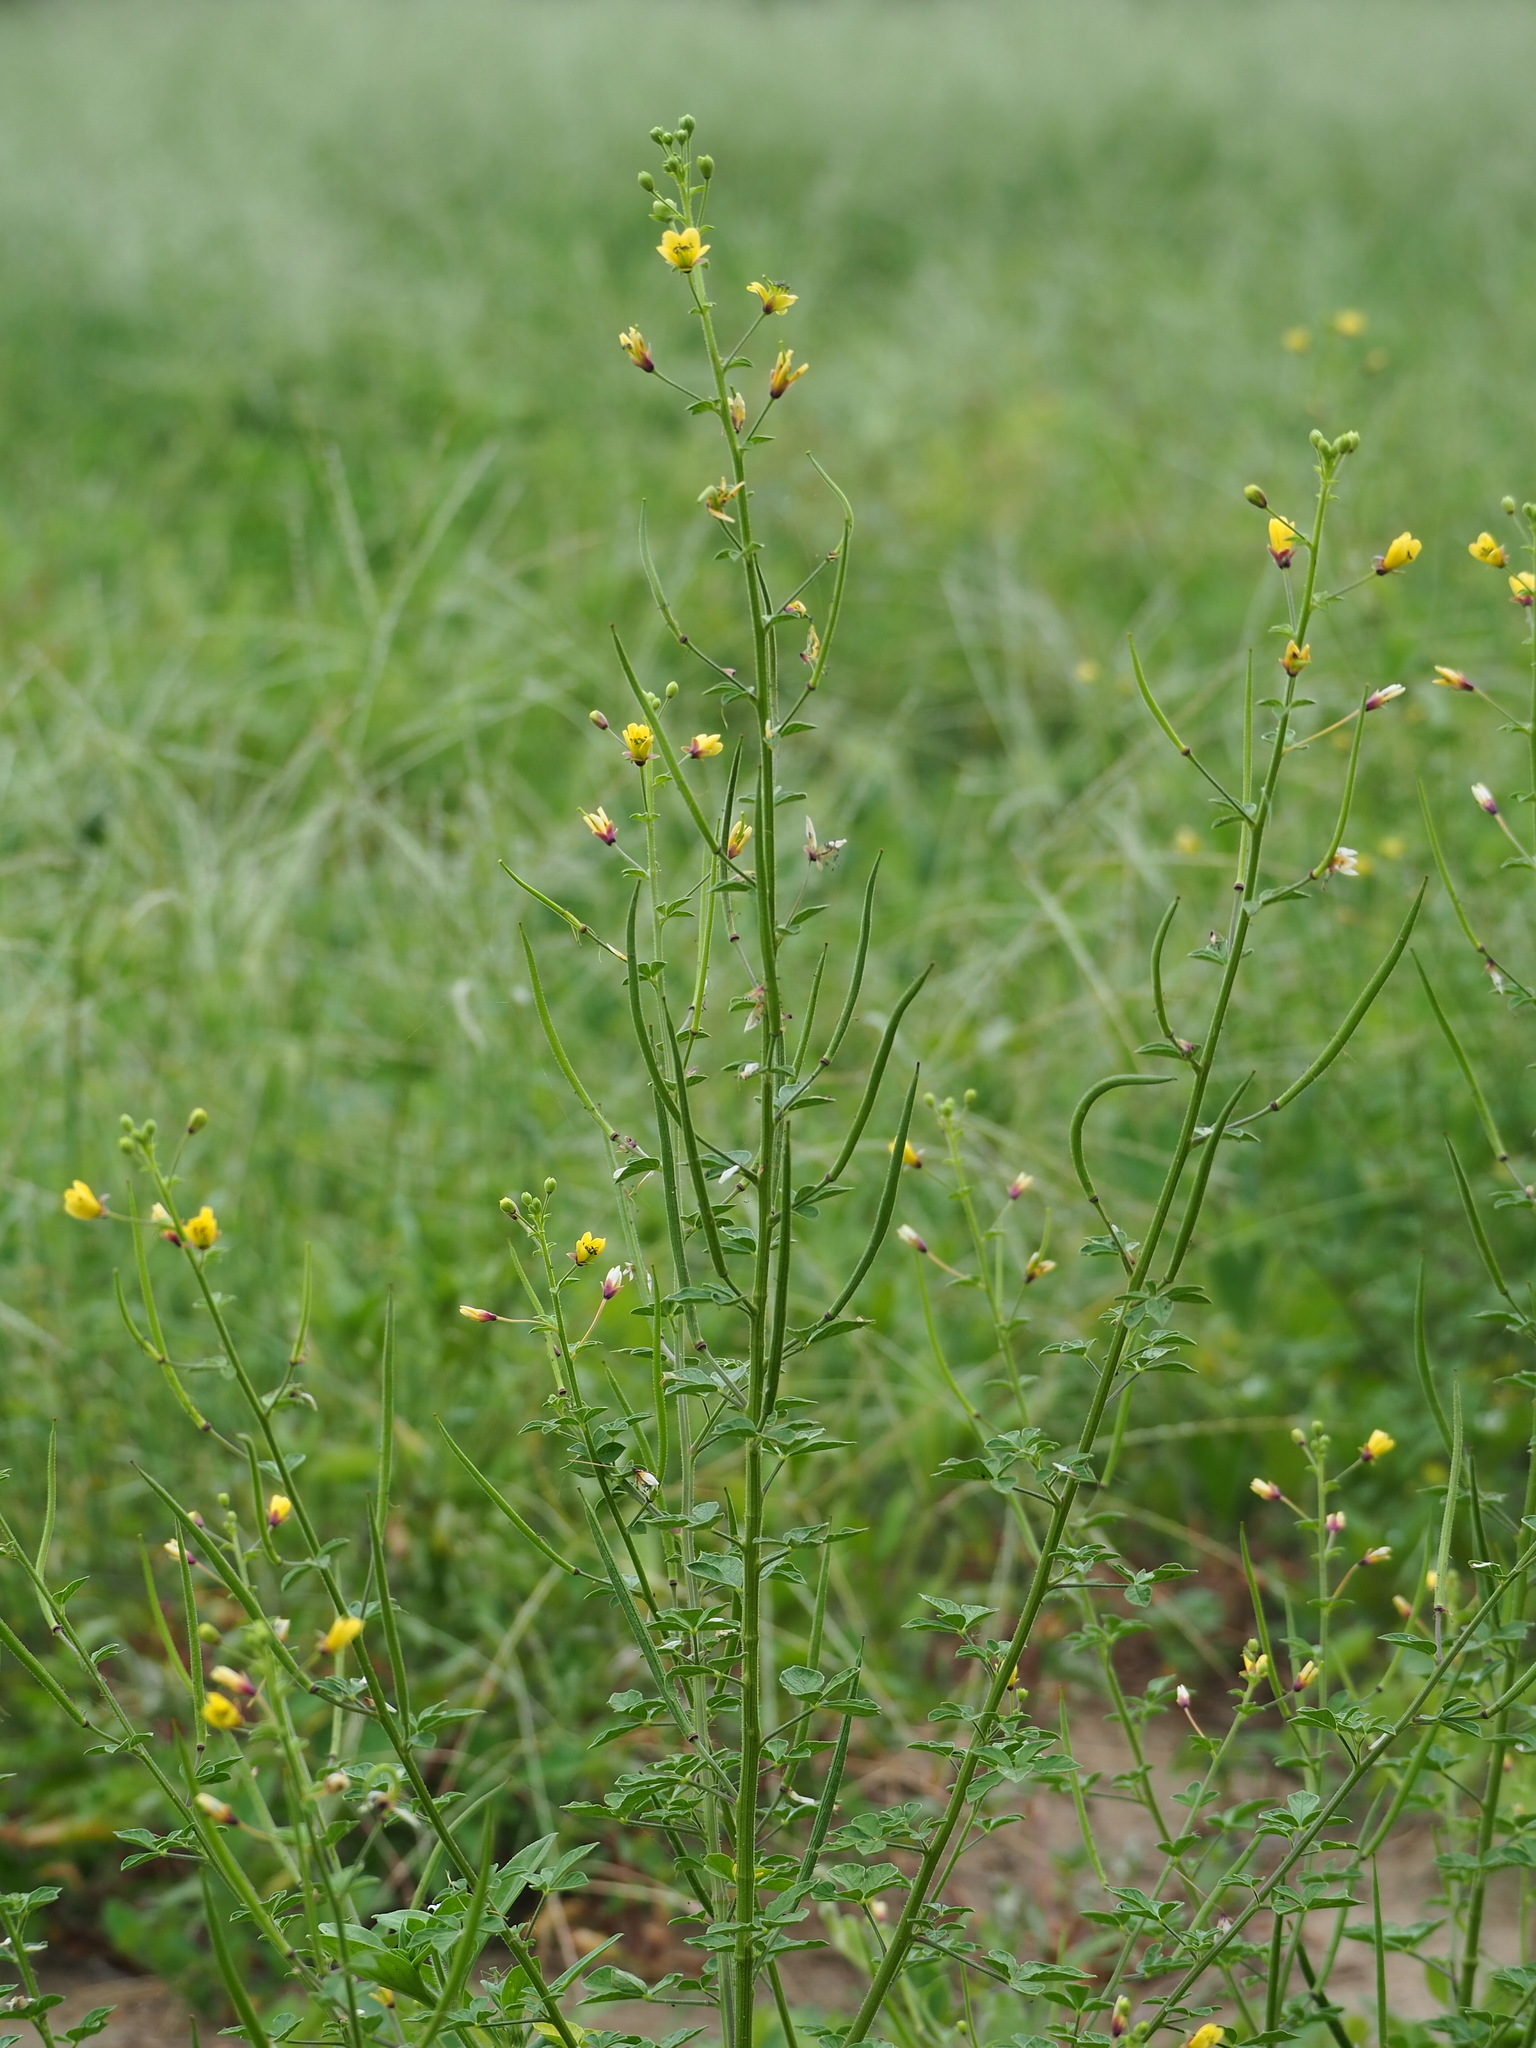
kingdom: Plantae
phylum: Tracheophyta
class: Magnoliopsida
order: Brassicales
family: Cleomaceae
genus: Arivela
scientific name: Arivela viscosa
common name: Asian spiderflower
